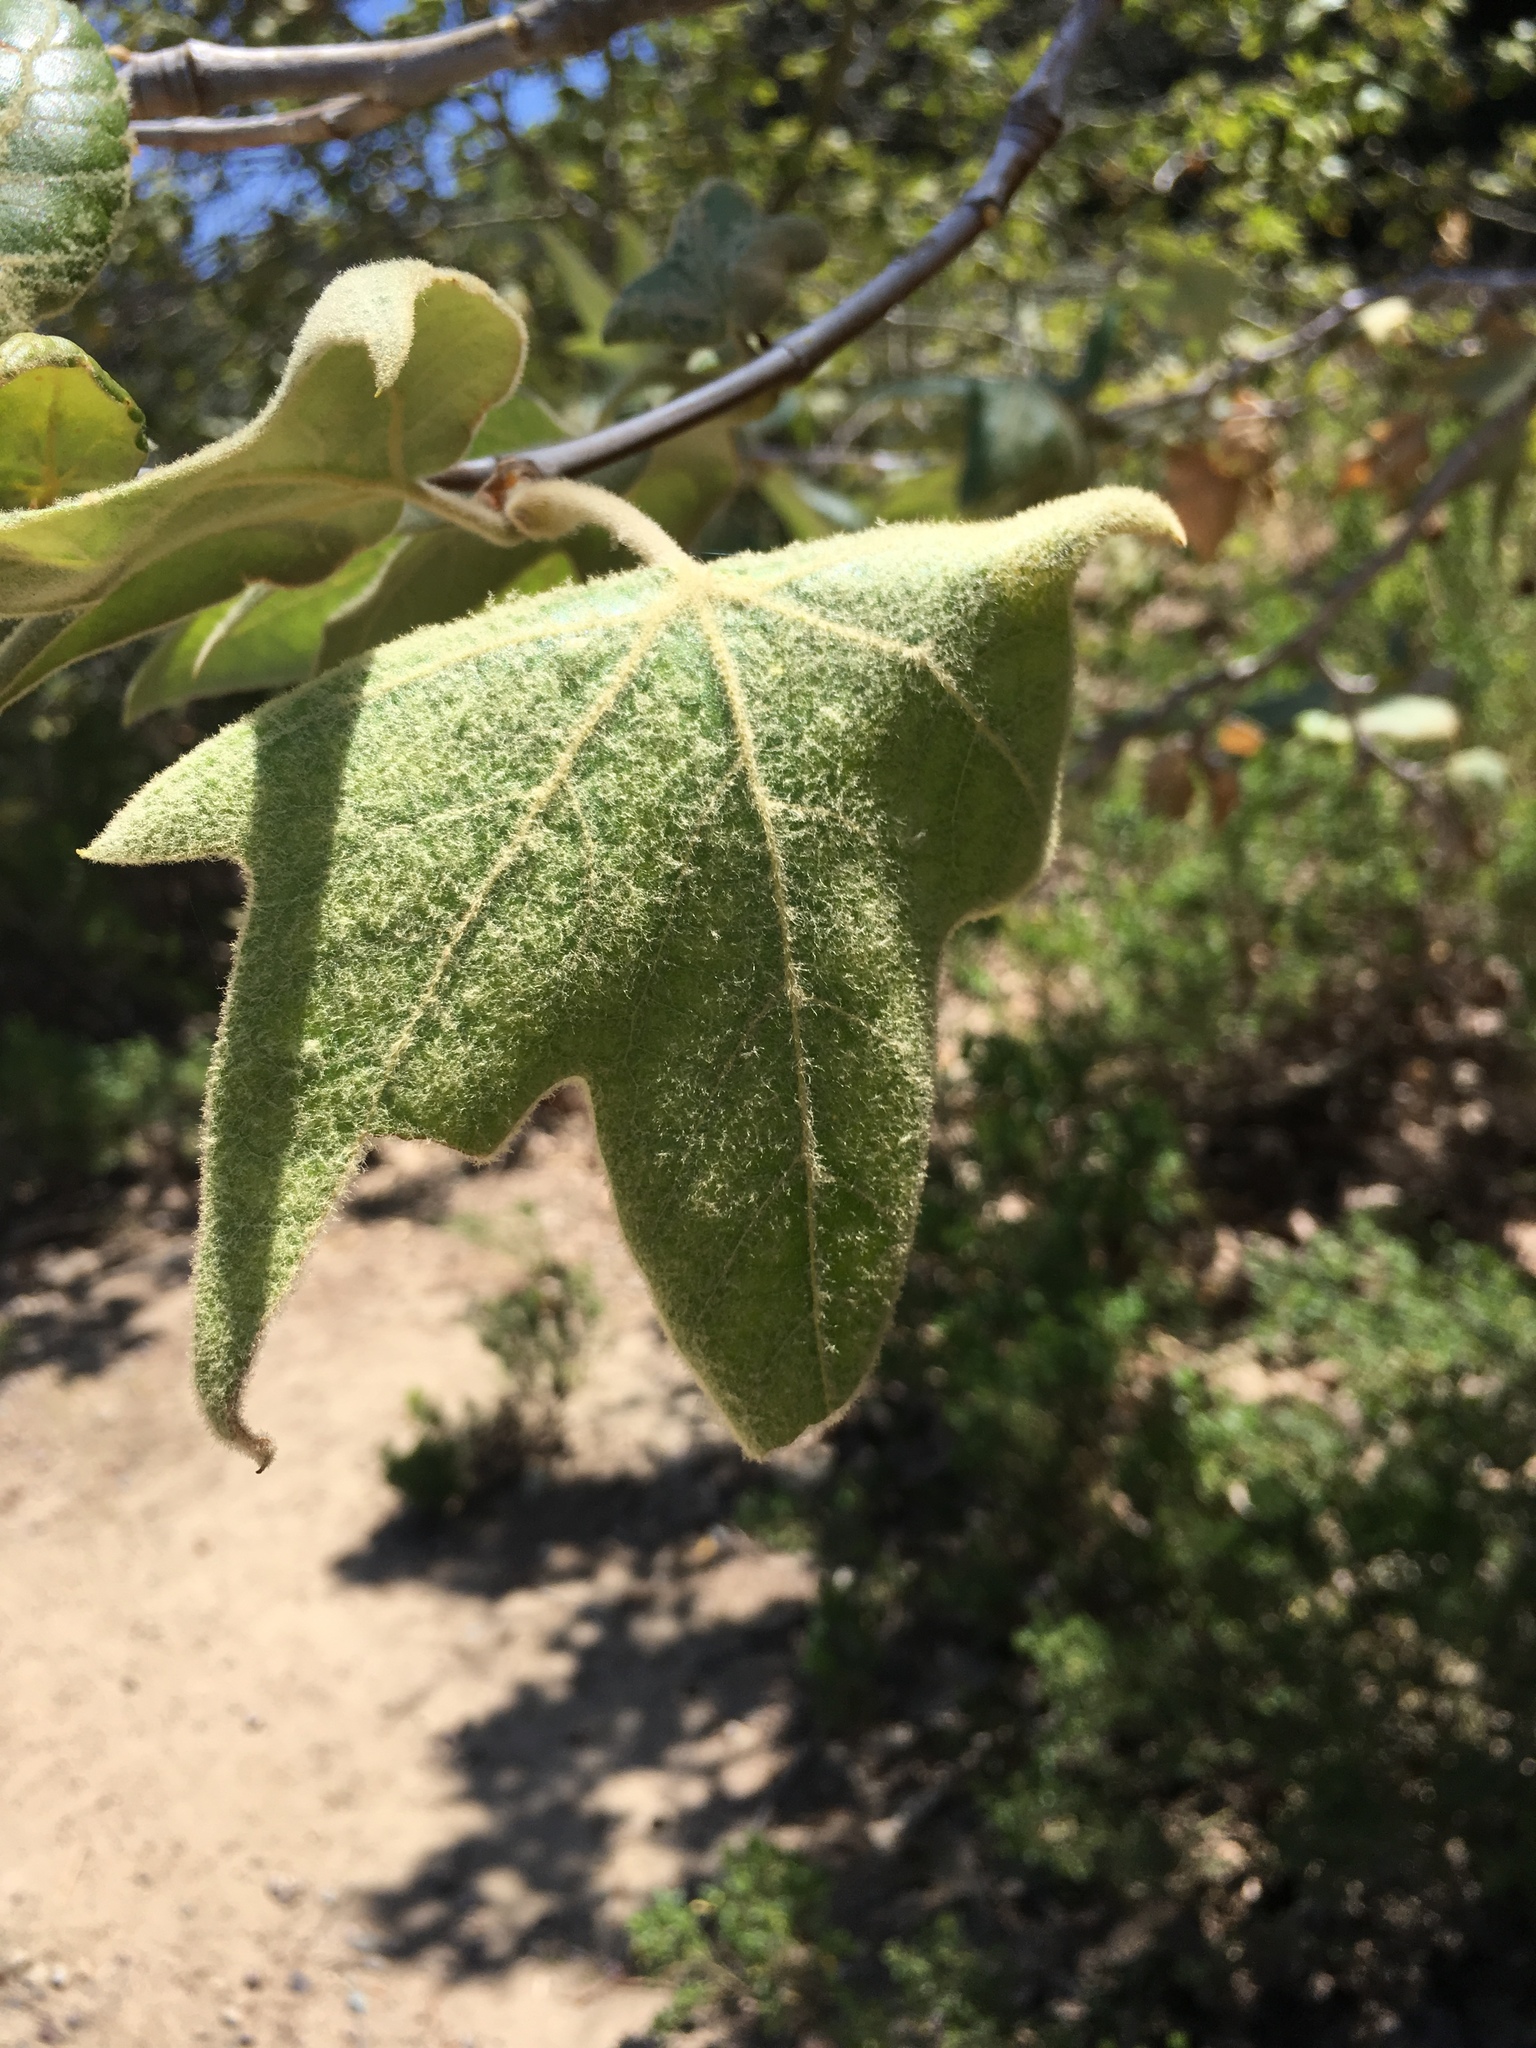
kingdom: Plantae
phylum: Tracheophyta
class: Magnoliopsida
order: Proteales
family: Platanaceae
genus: Platanus
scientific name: Platanus racemosa
